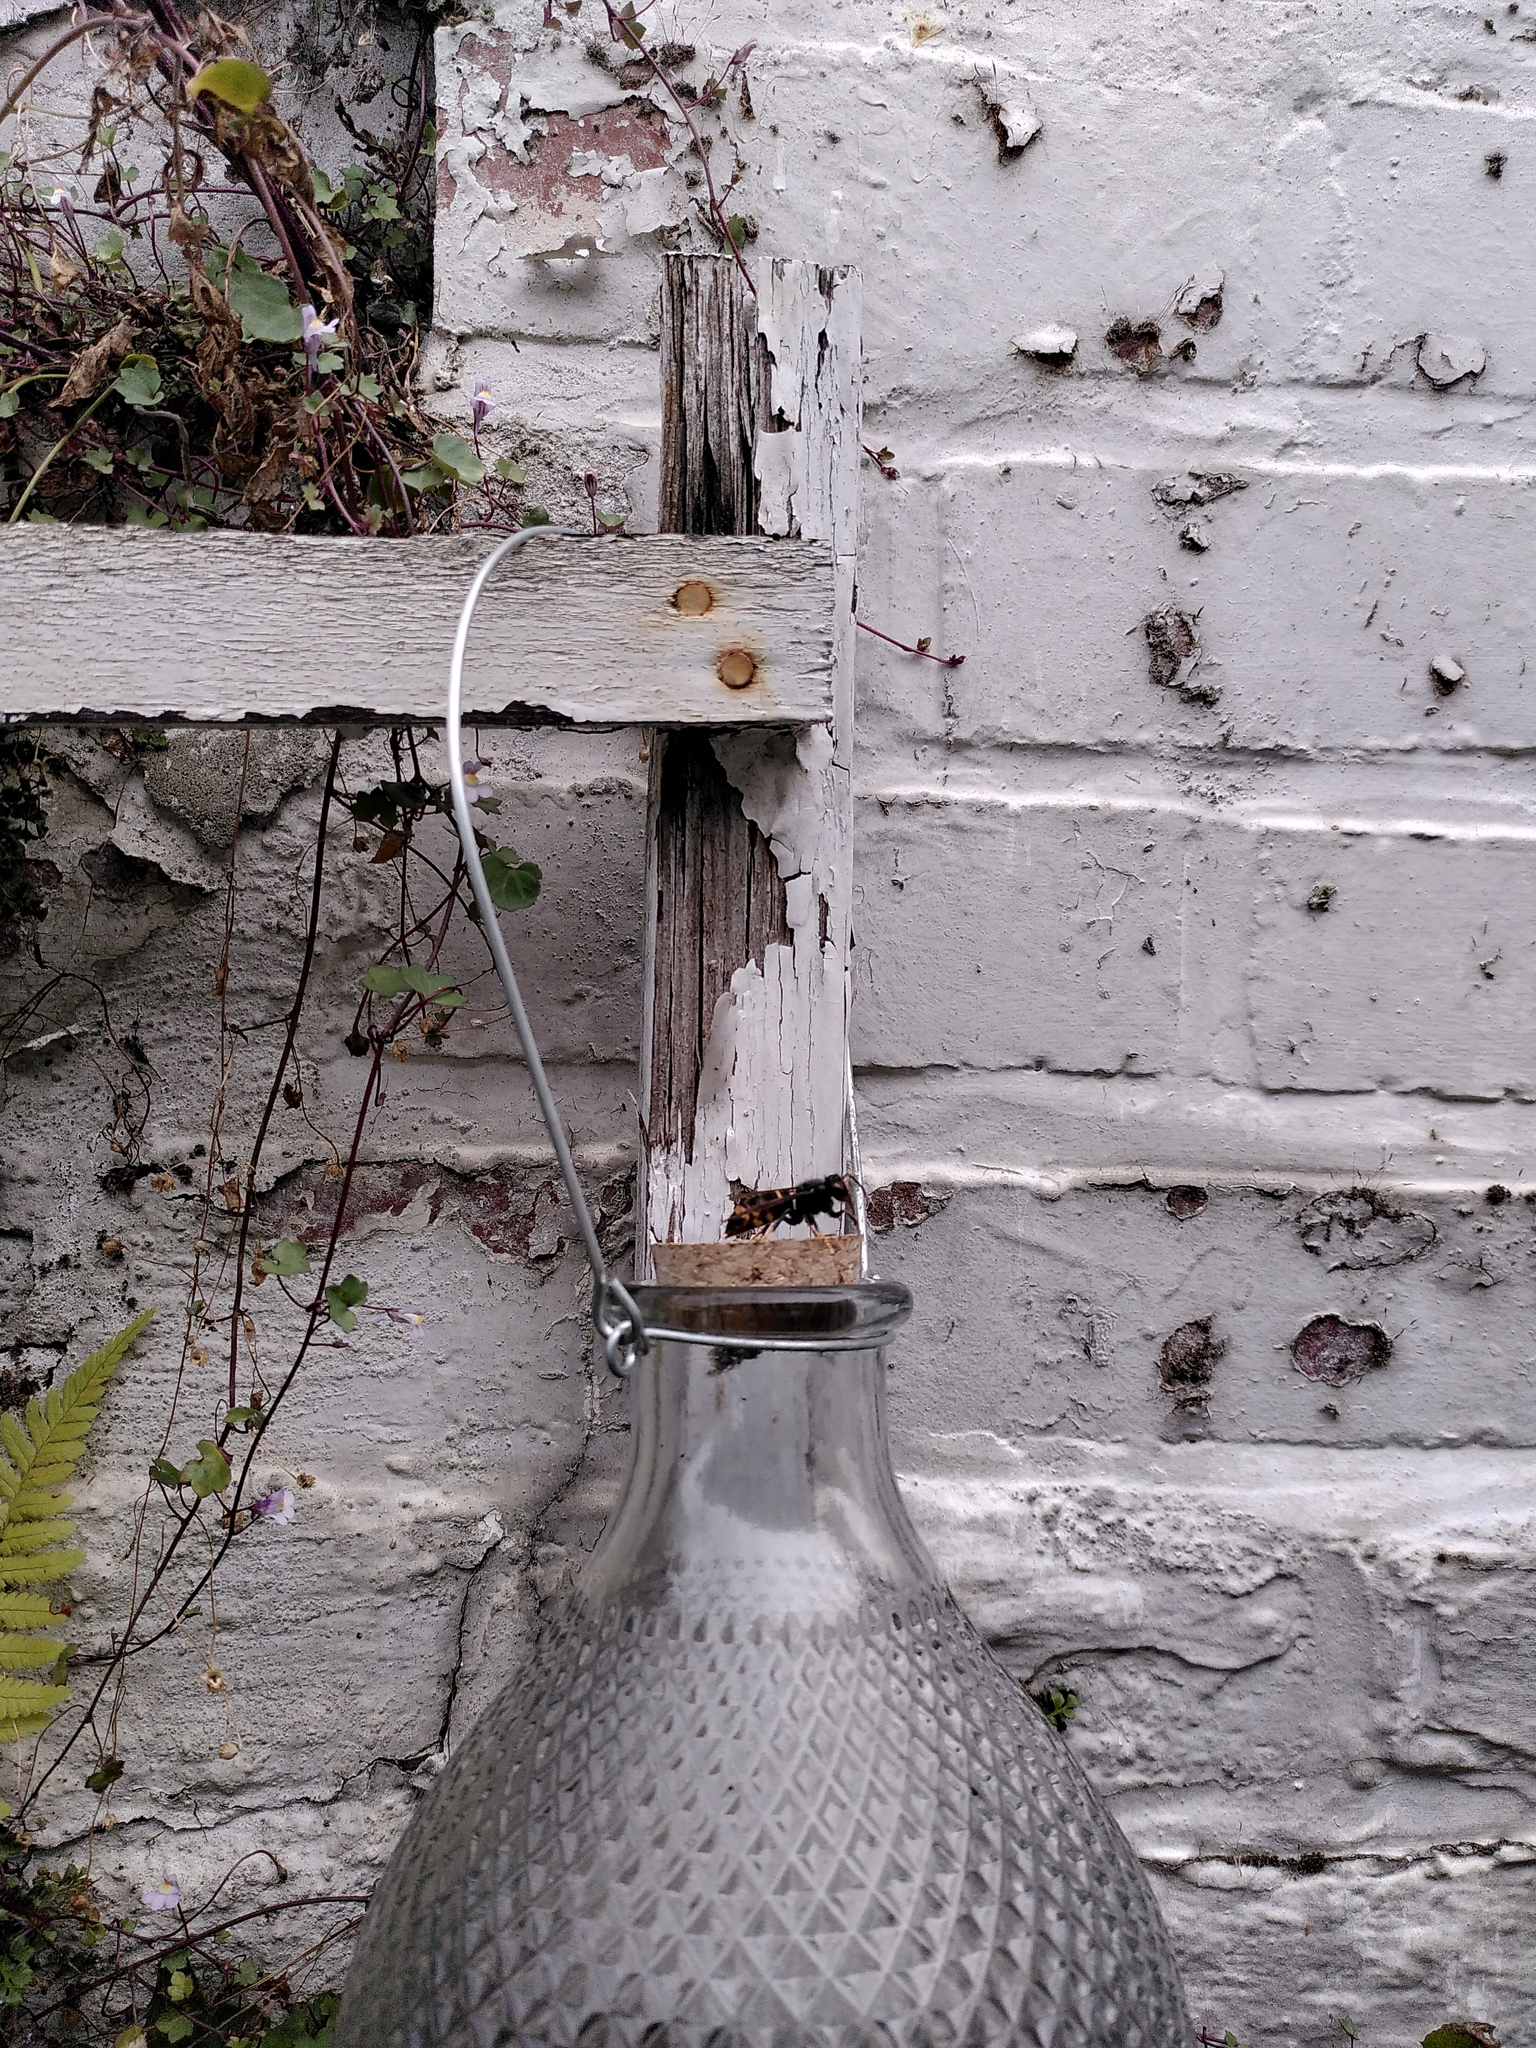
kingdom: Animalia
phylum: Arthropoda
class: Insecta
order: Hymenoptera
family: Vespidae
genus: Vespa
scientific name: Vespa velutina
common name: Asian hornet
